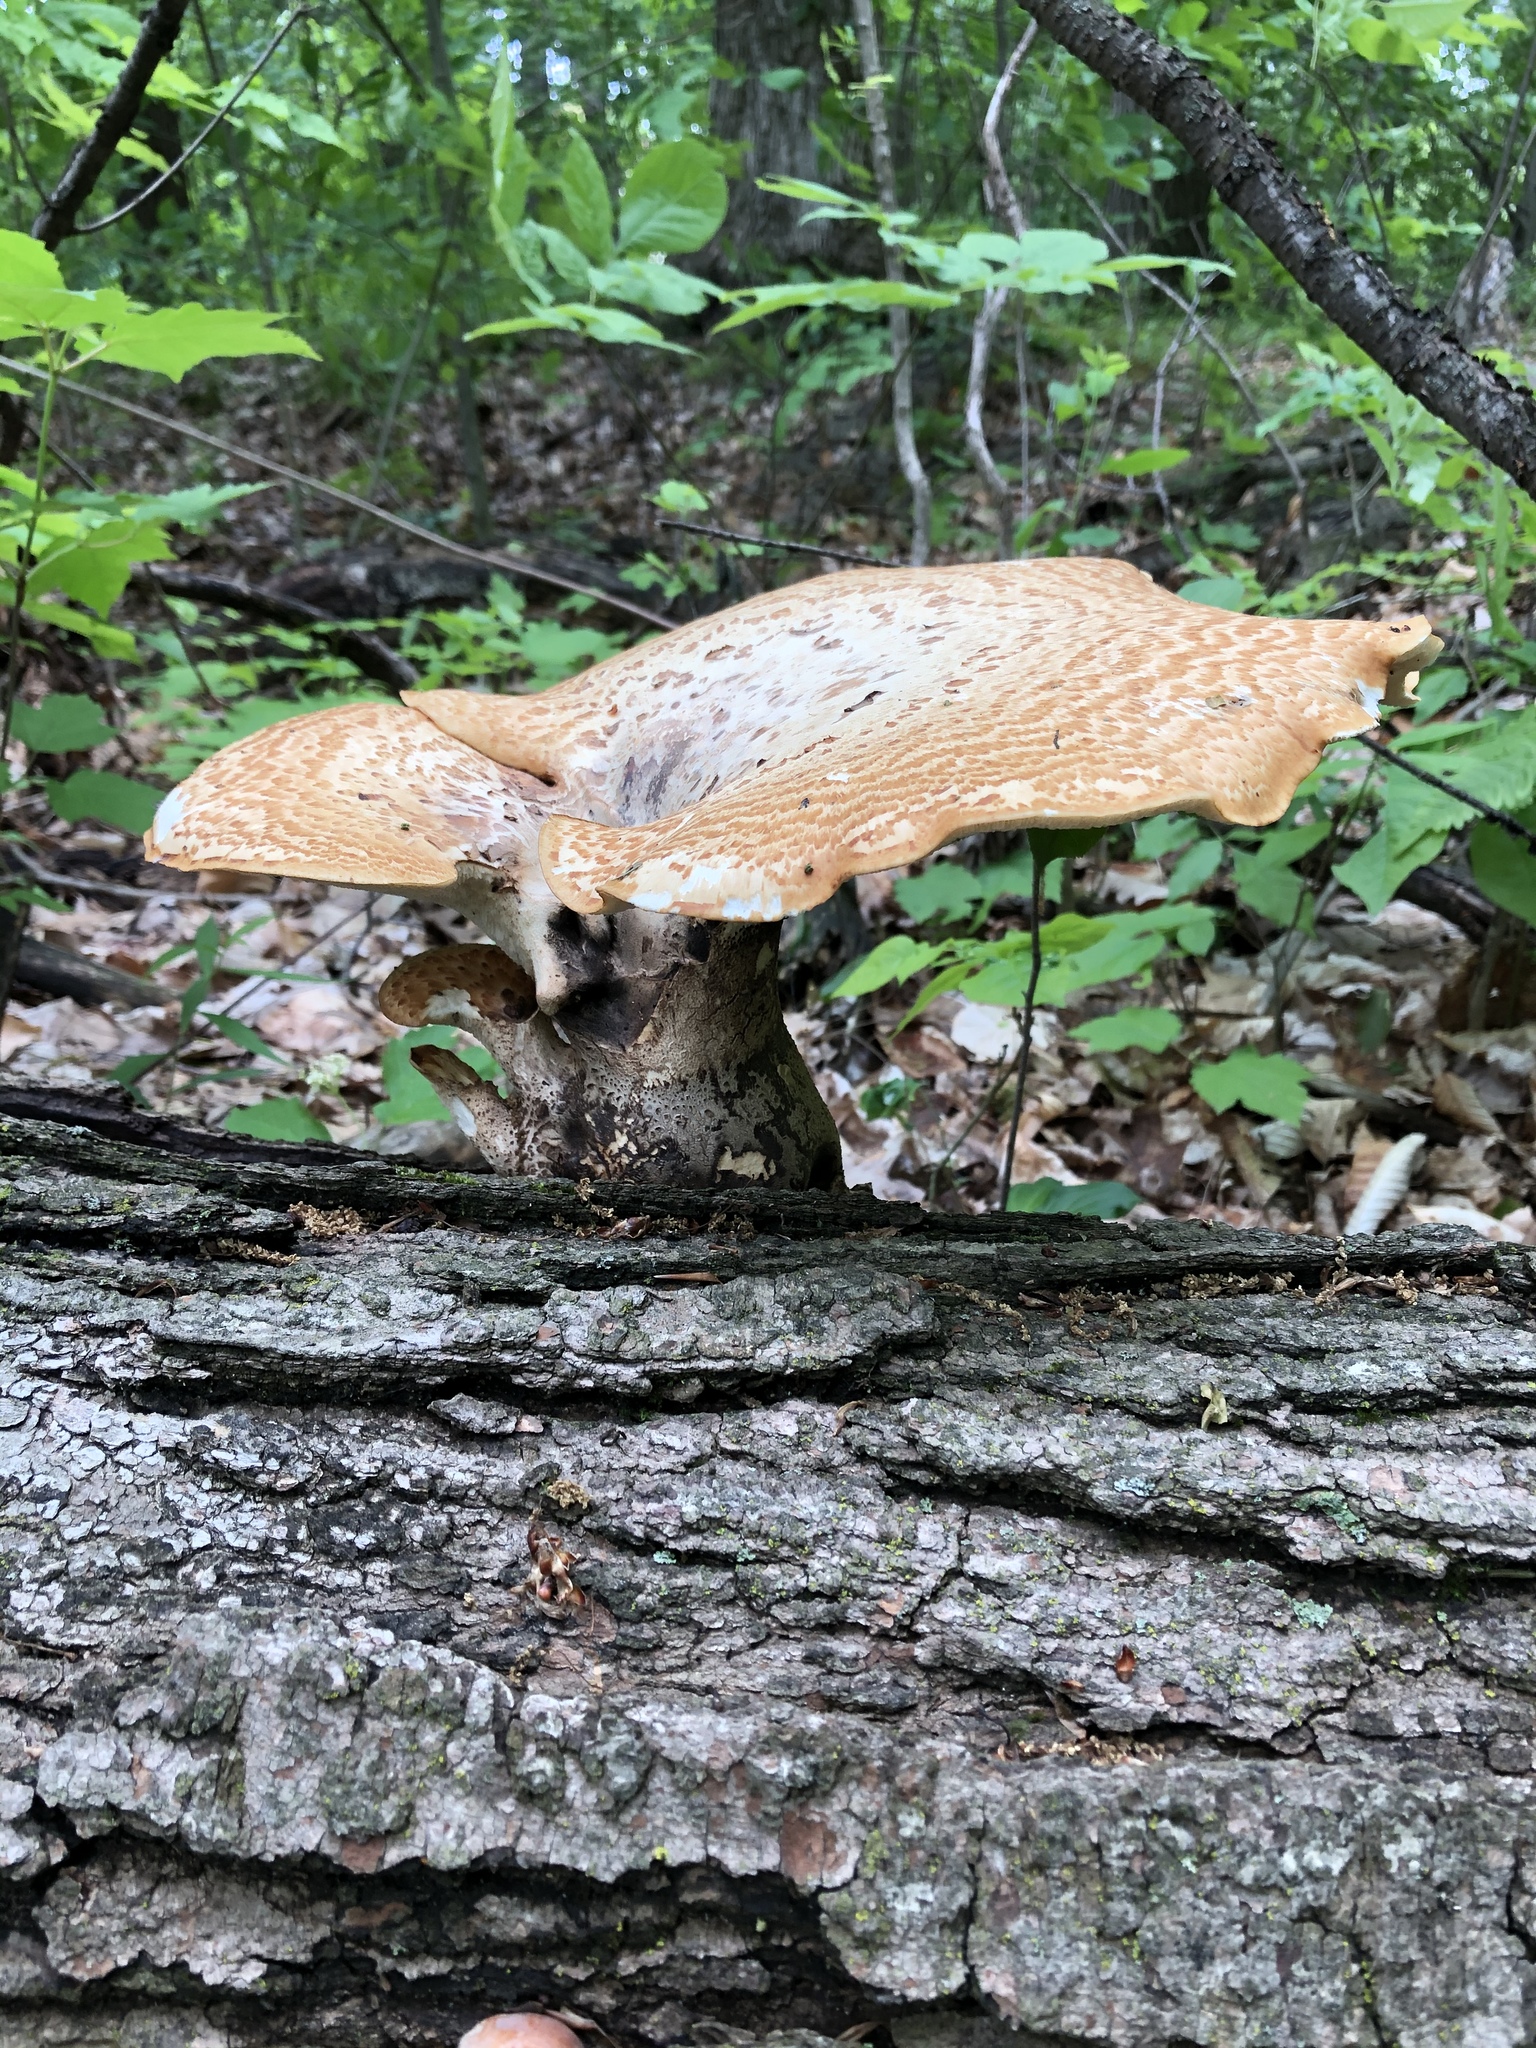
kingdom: Fungi
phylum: Basidiomycota
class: Agaricomycetes
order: Polyporales
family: Polyporaceae
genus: Cerioporus
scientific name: Cerioporus squamosus
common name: Dryad's saddle
